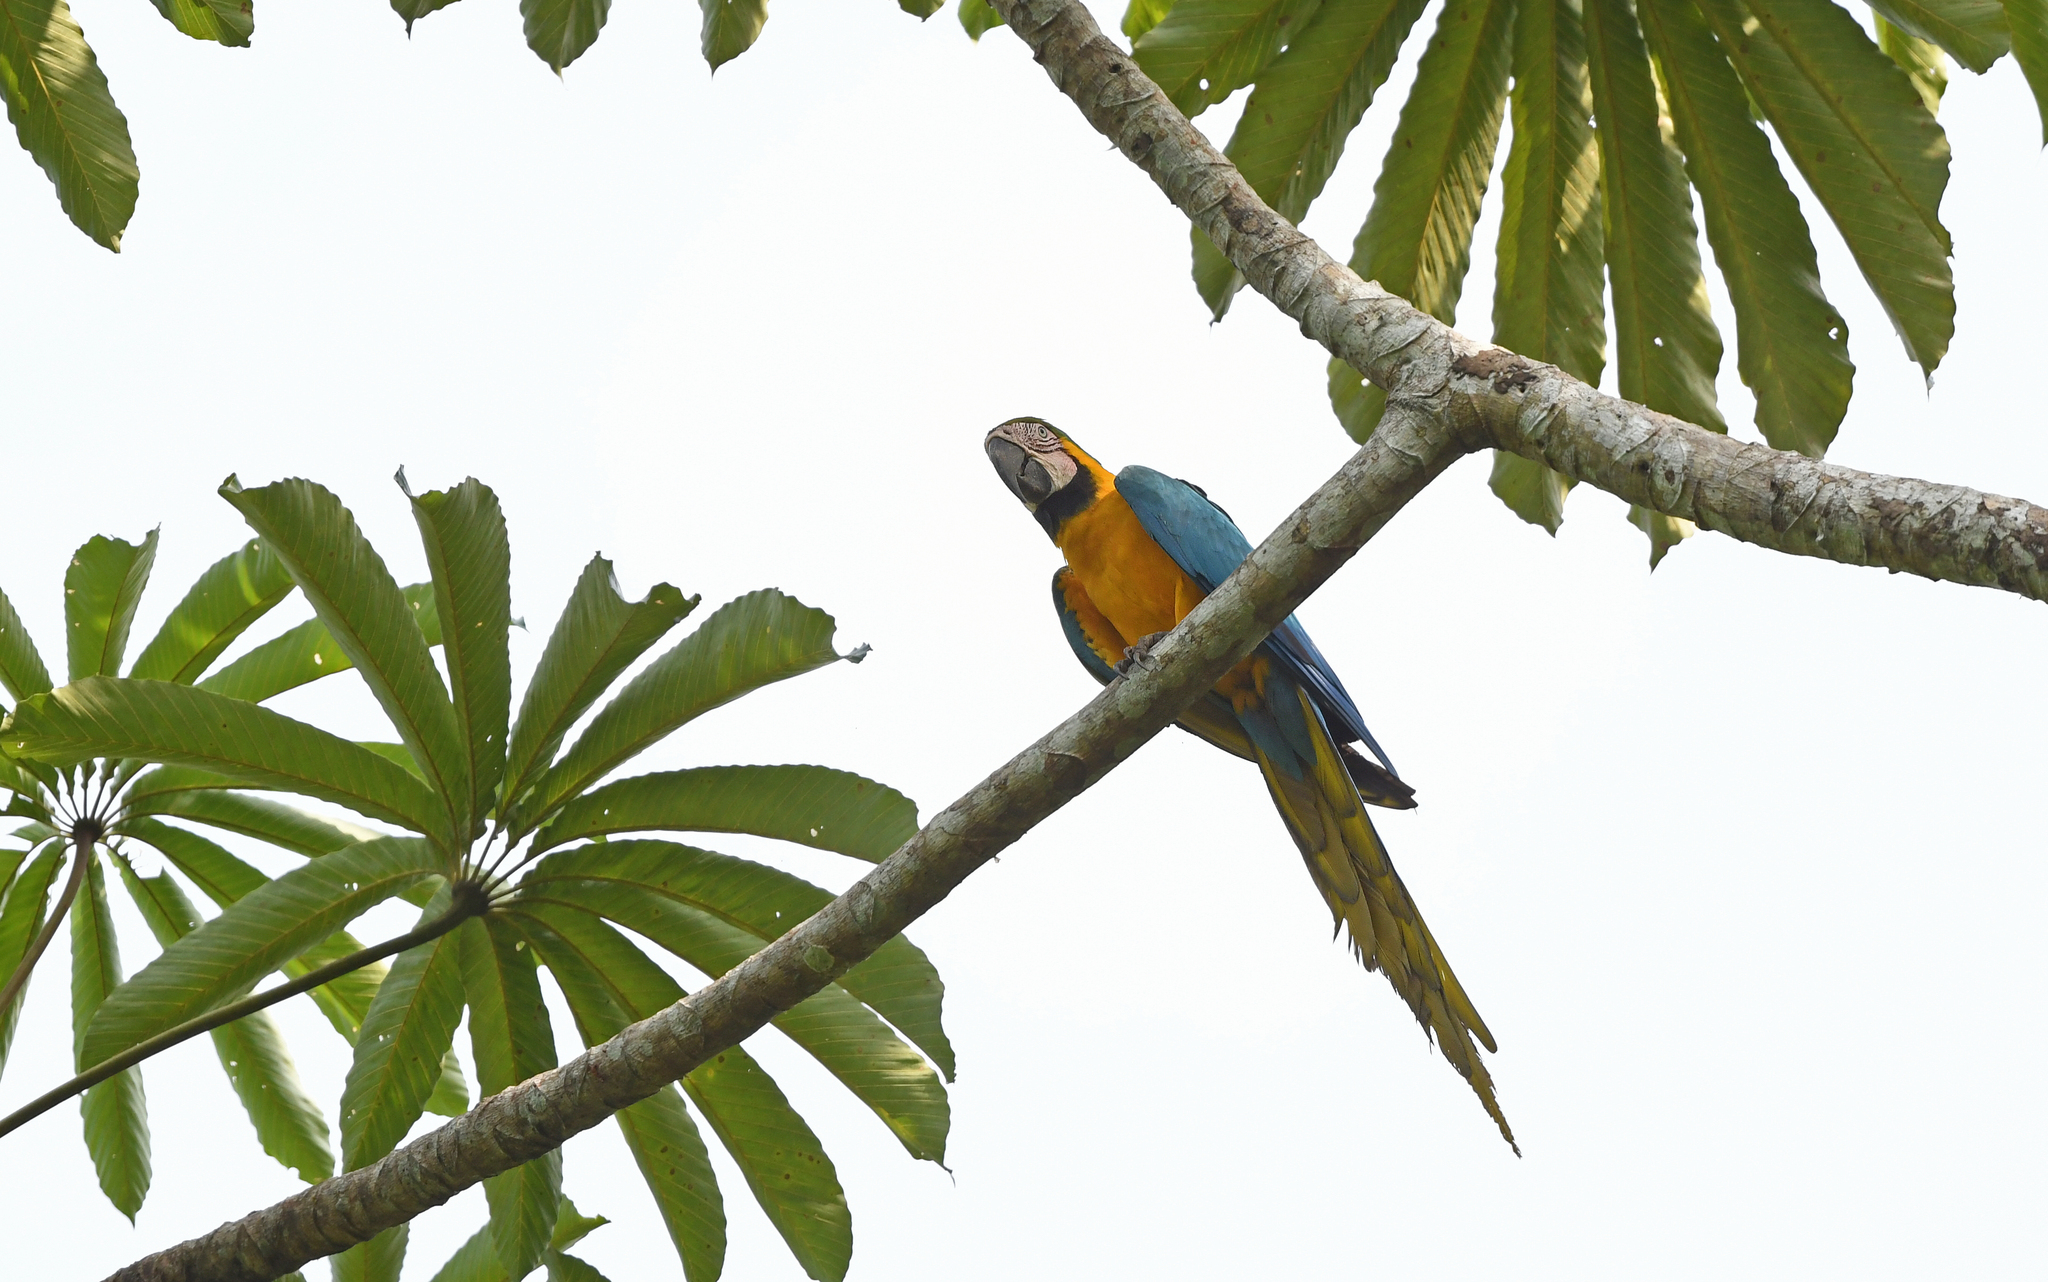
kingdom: Animalia
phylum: Chordata
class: Aves
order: Psittaciformes
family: Psittacidae
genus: Ara
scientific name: Ara ararauna
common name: Blue-and-yellow macaw
